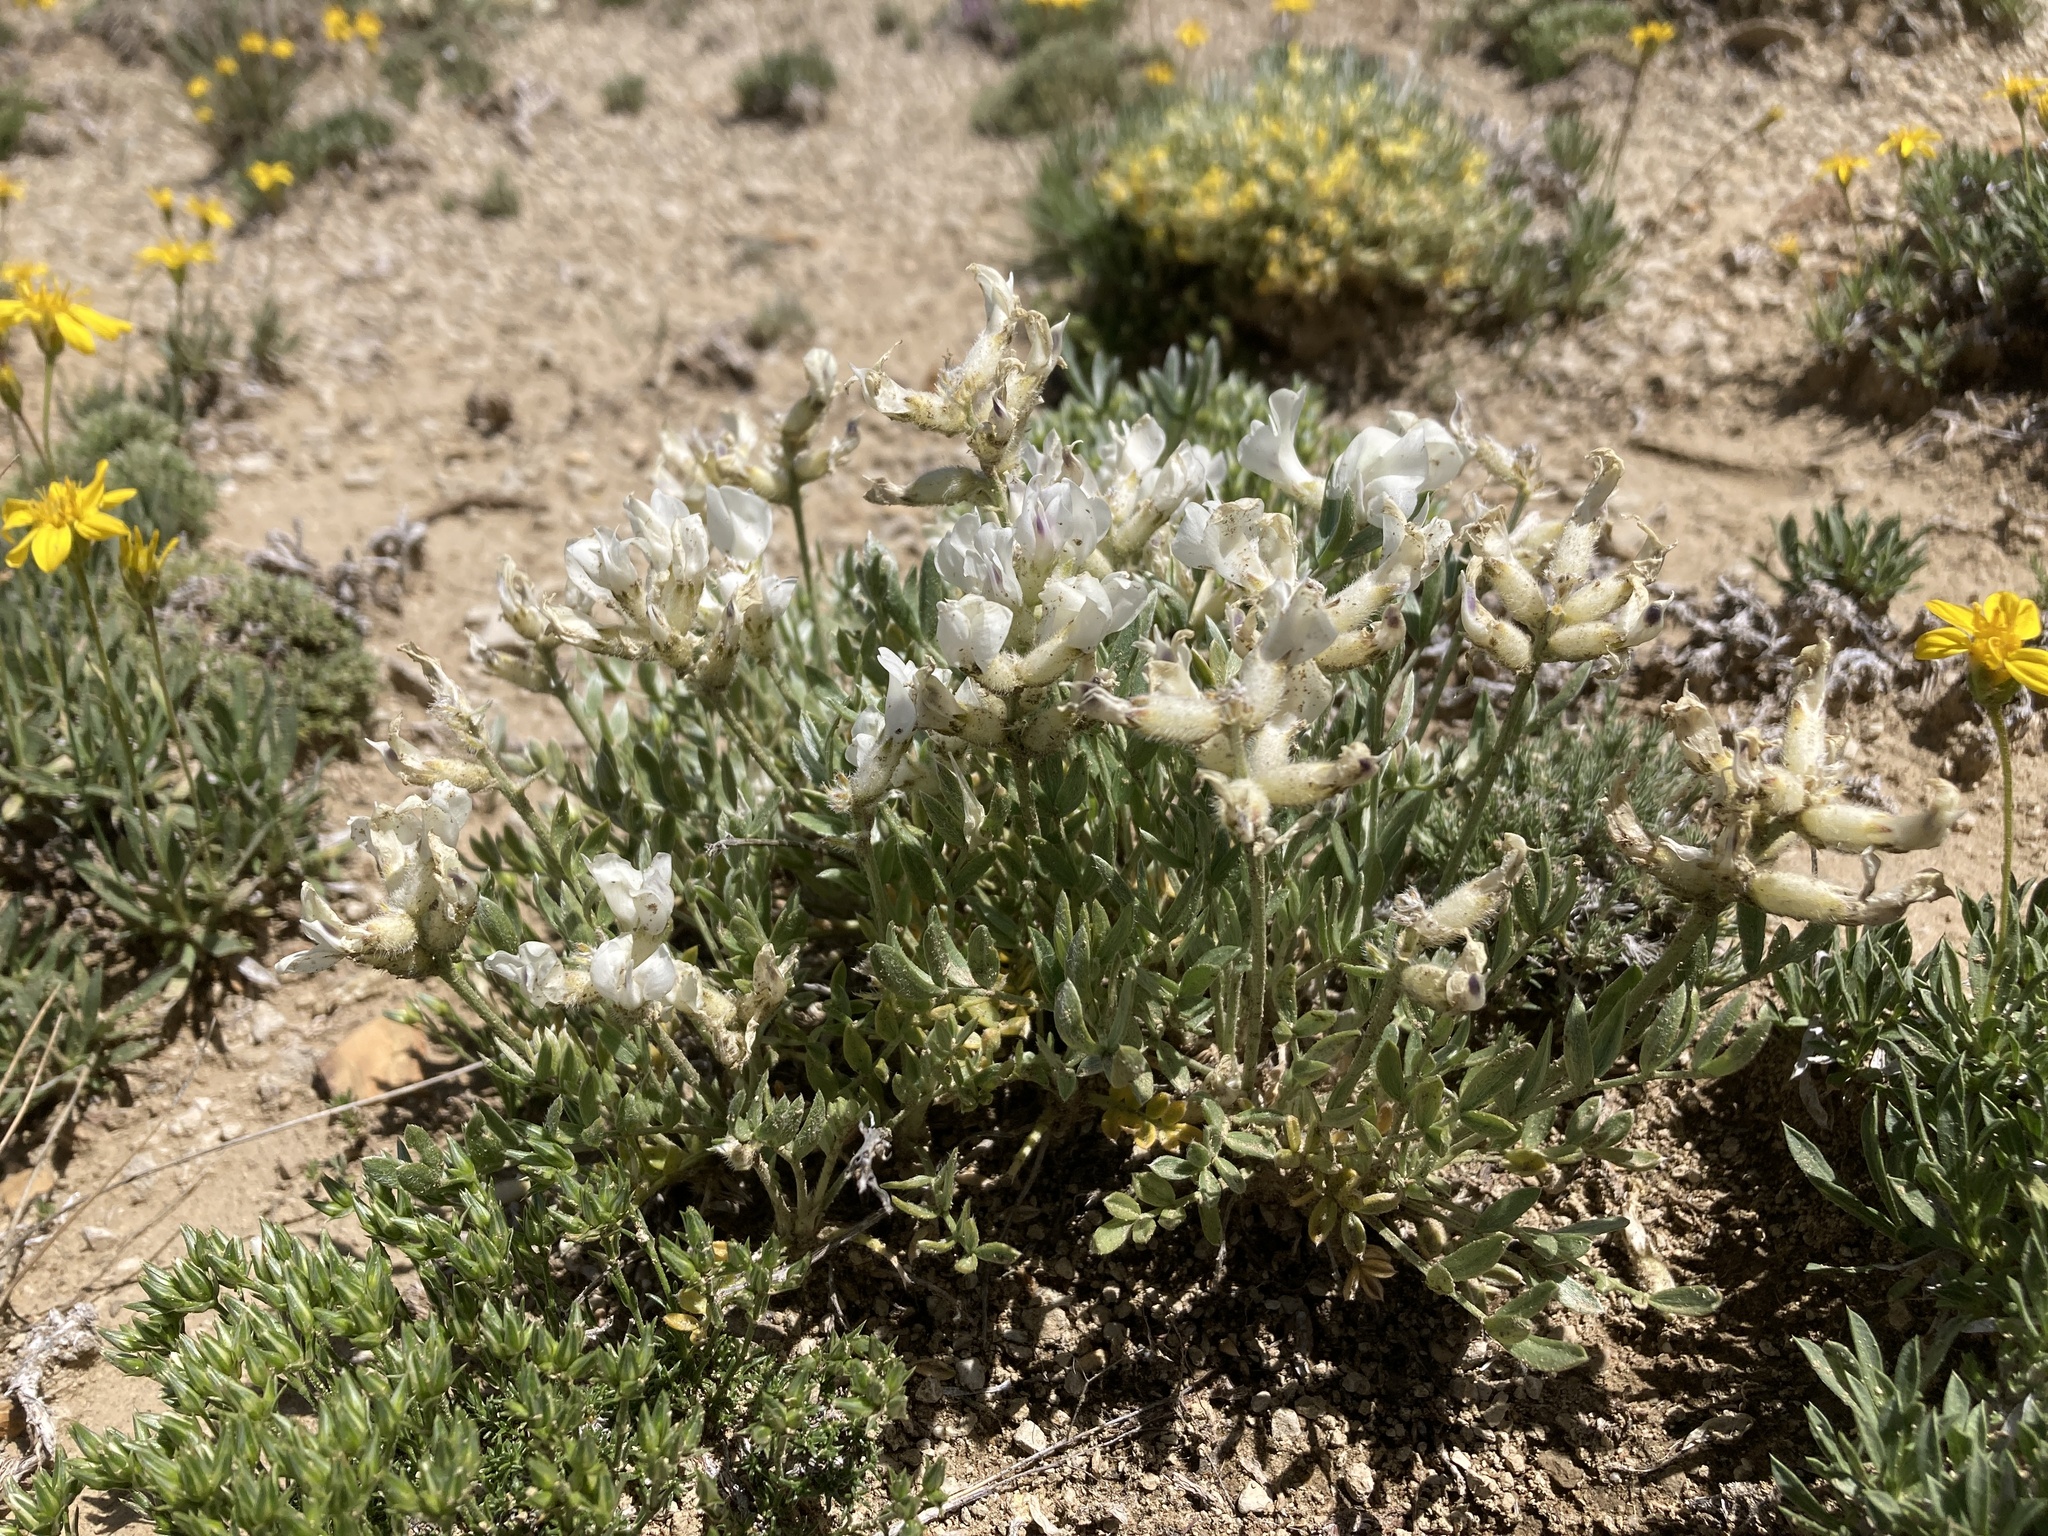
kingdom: Plantae
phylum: Tracheophyta
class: Magnoliopsida
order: Fabales
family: Fabaceae
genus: Oxytropis
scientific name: Oxytropis sericea
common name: Silky locoweed
